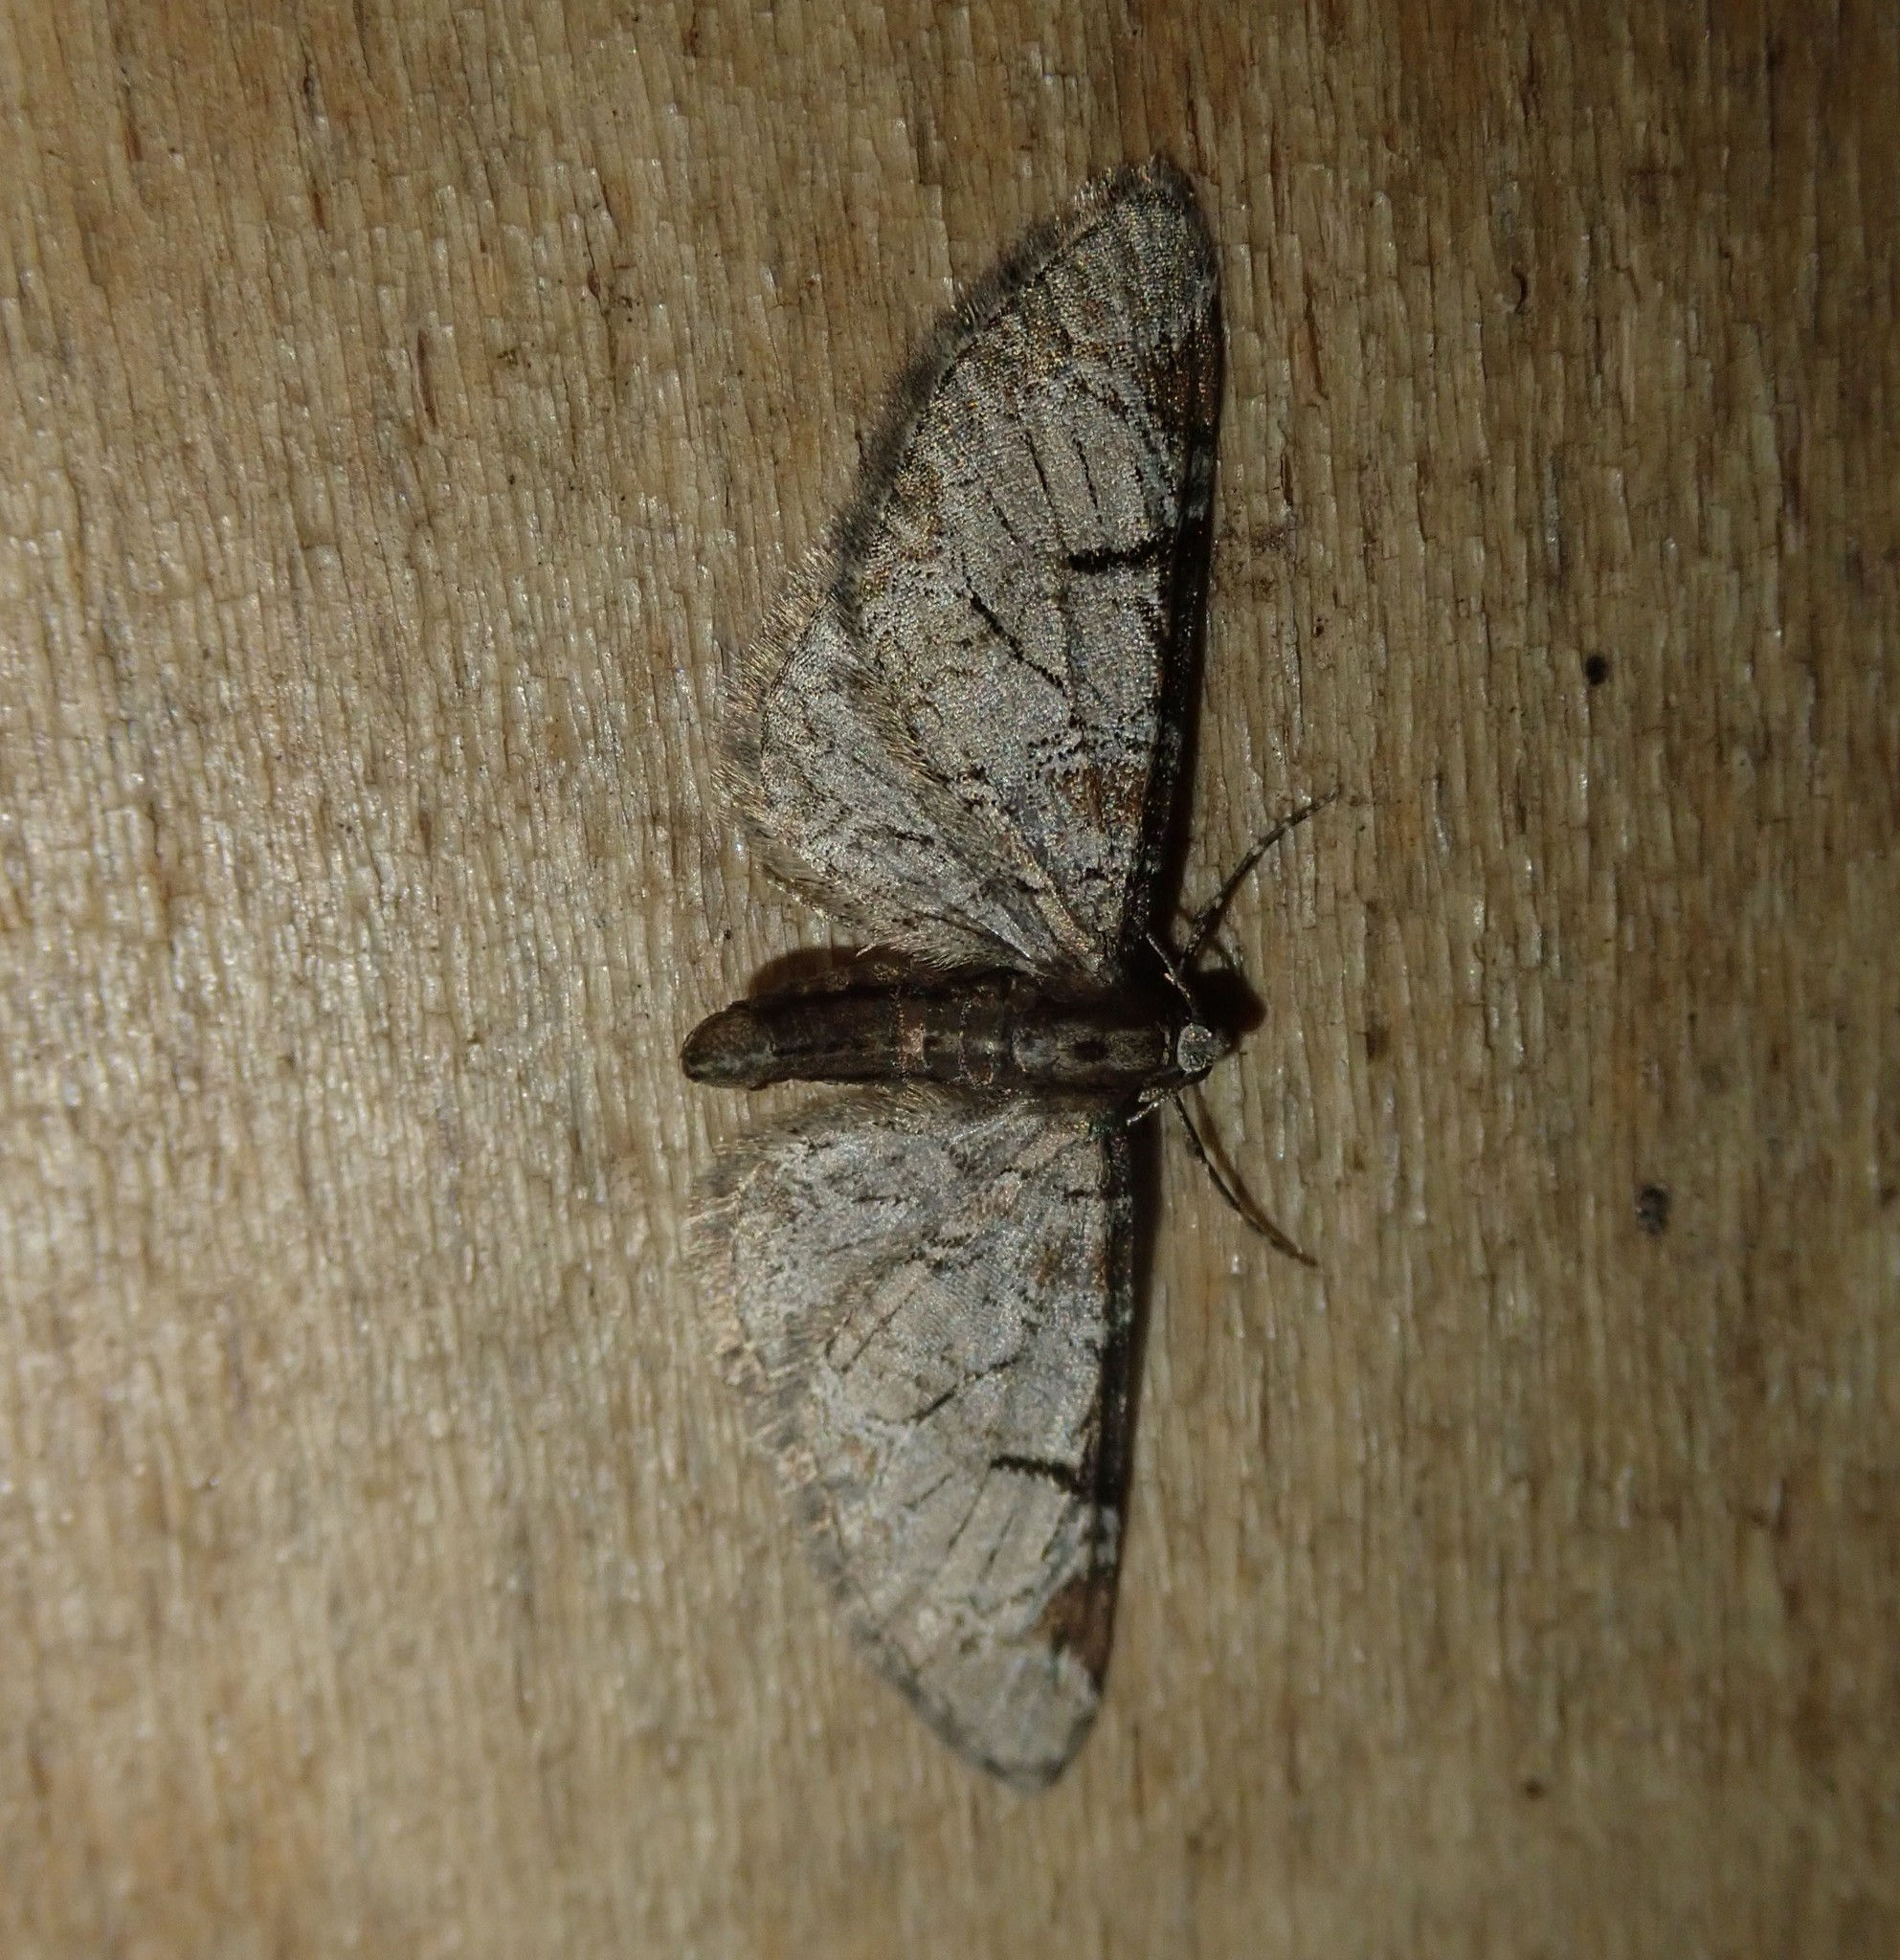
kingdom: Animalia
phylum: Arthropoda
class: Insecta
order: Lepidoptera
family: Geometridae
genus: Eupithecia
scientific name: Eupithecia insigniata
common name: Pinion-spotted pug
